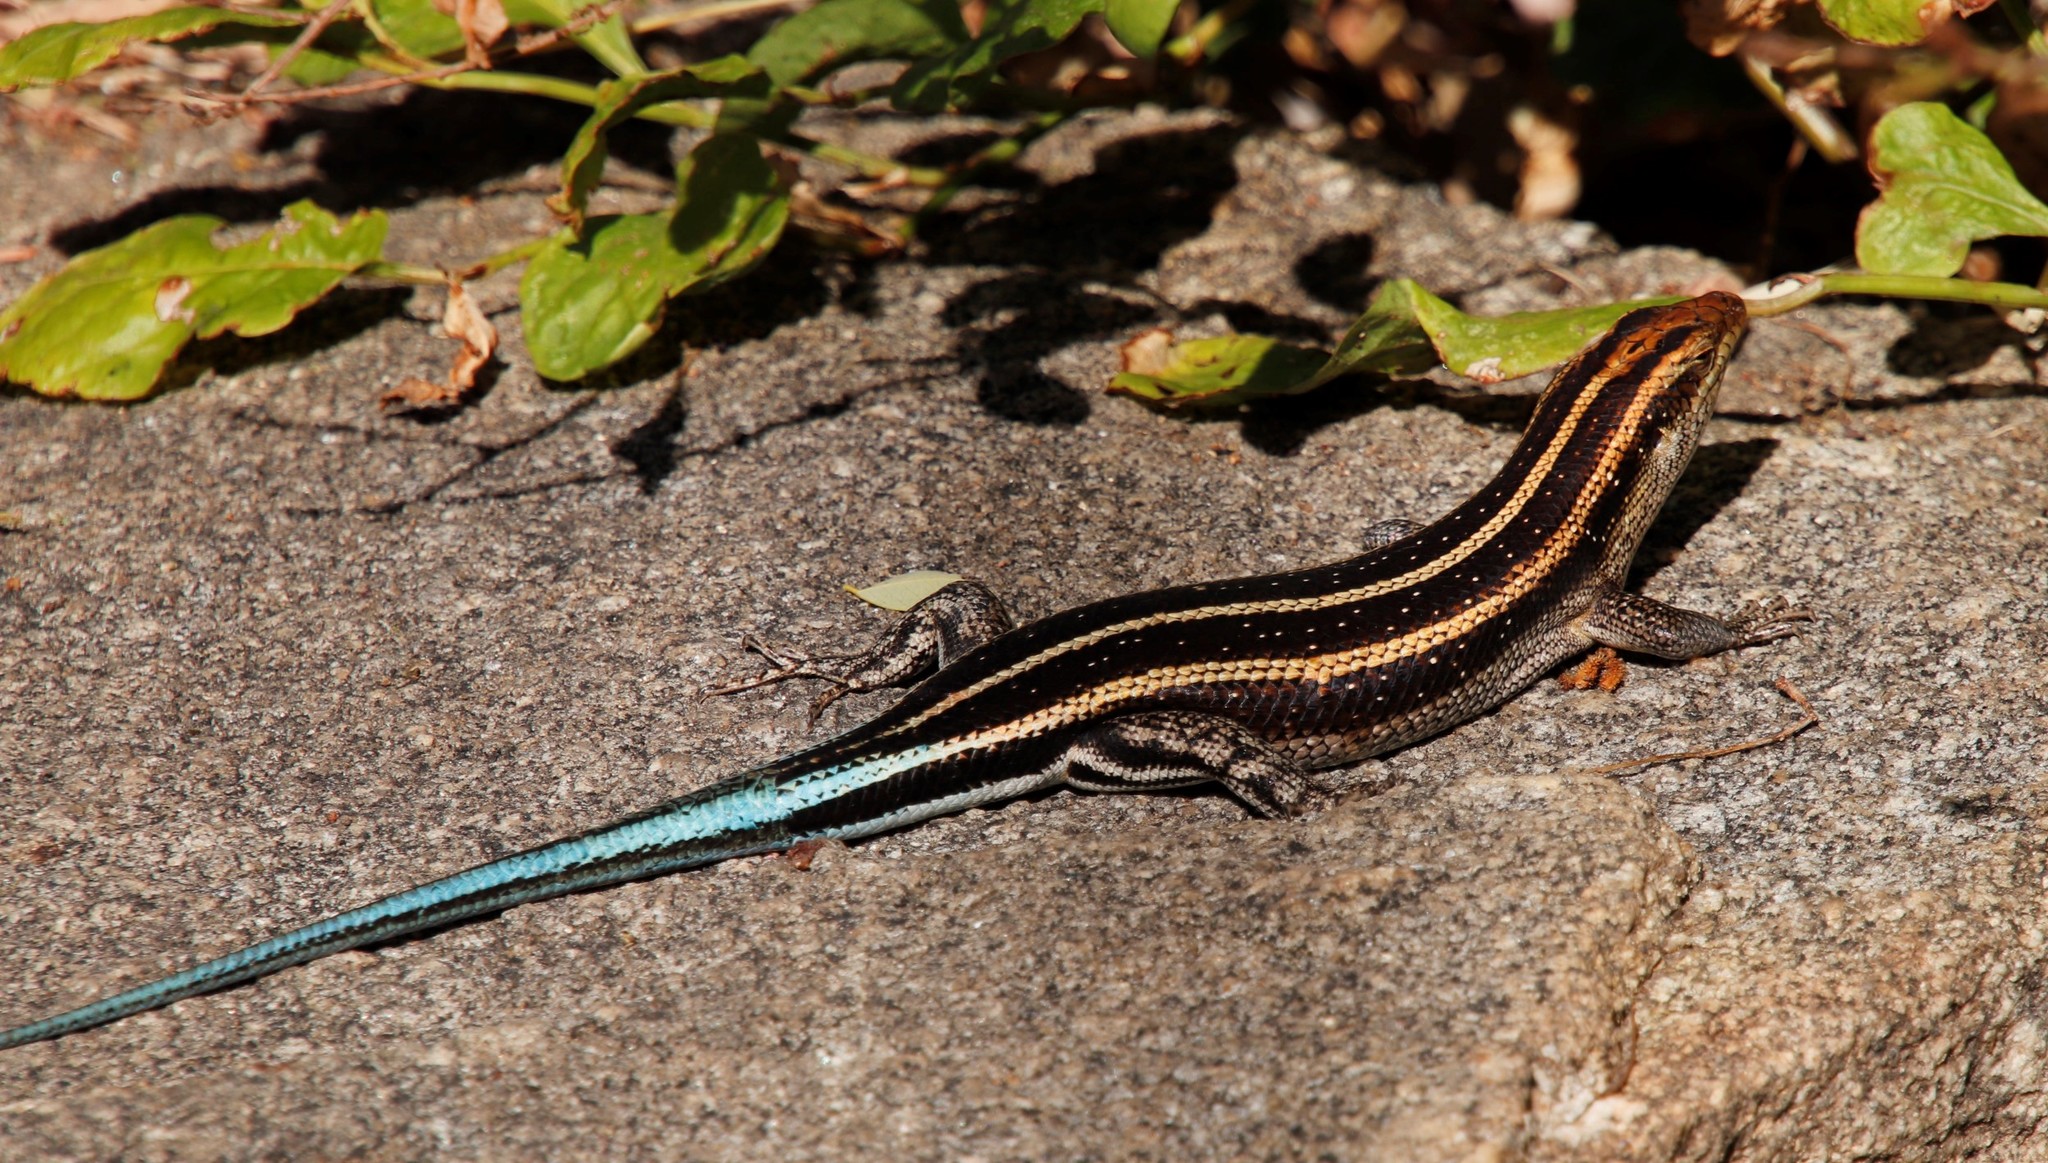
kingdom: Animalia
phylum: Chordata
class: Squamata
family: Scincidae
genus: Trachylepis
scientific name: Trachylepis margaritifera
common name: Rainbow skink
